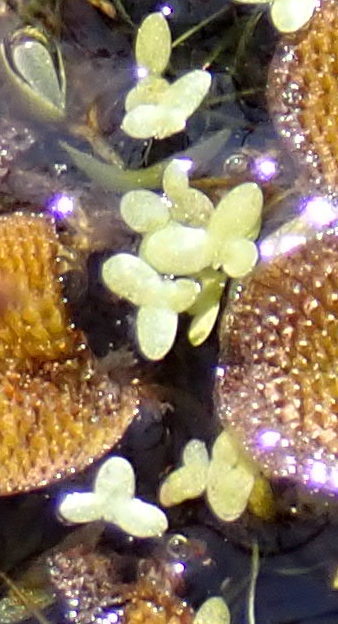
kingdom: Plantae
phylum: Tracheophyta
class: Liliopsida
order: Alismatales
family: Araceae
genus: Lemna
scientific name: Lemna minor
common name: Common duckweed
